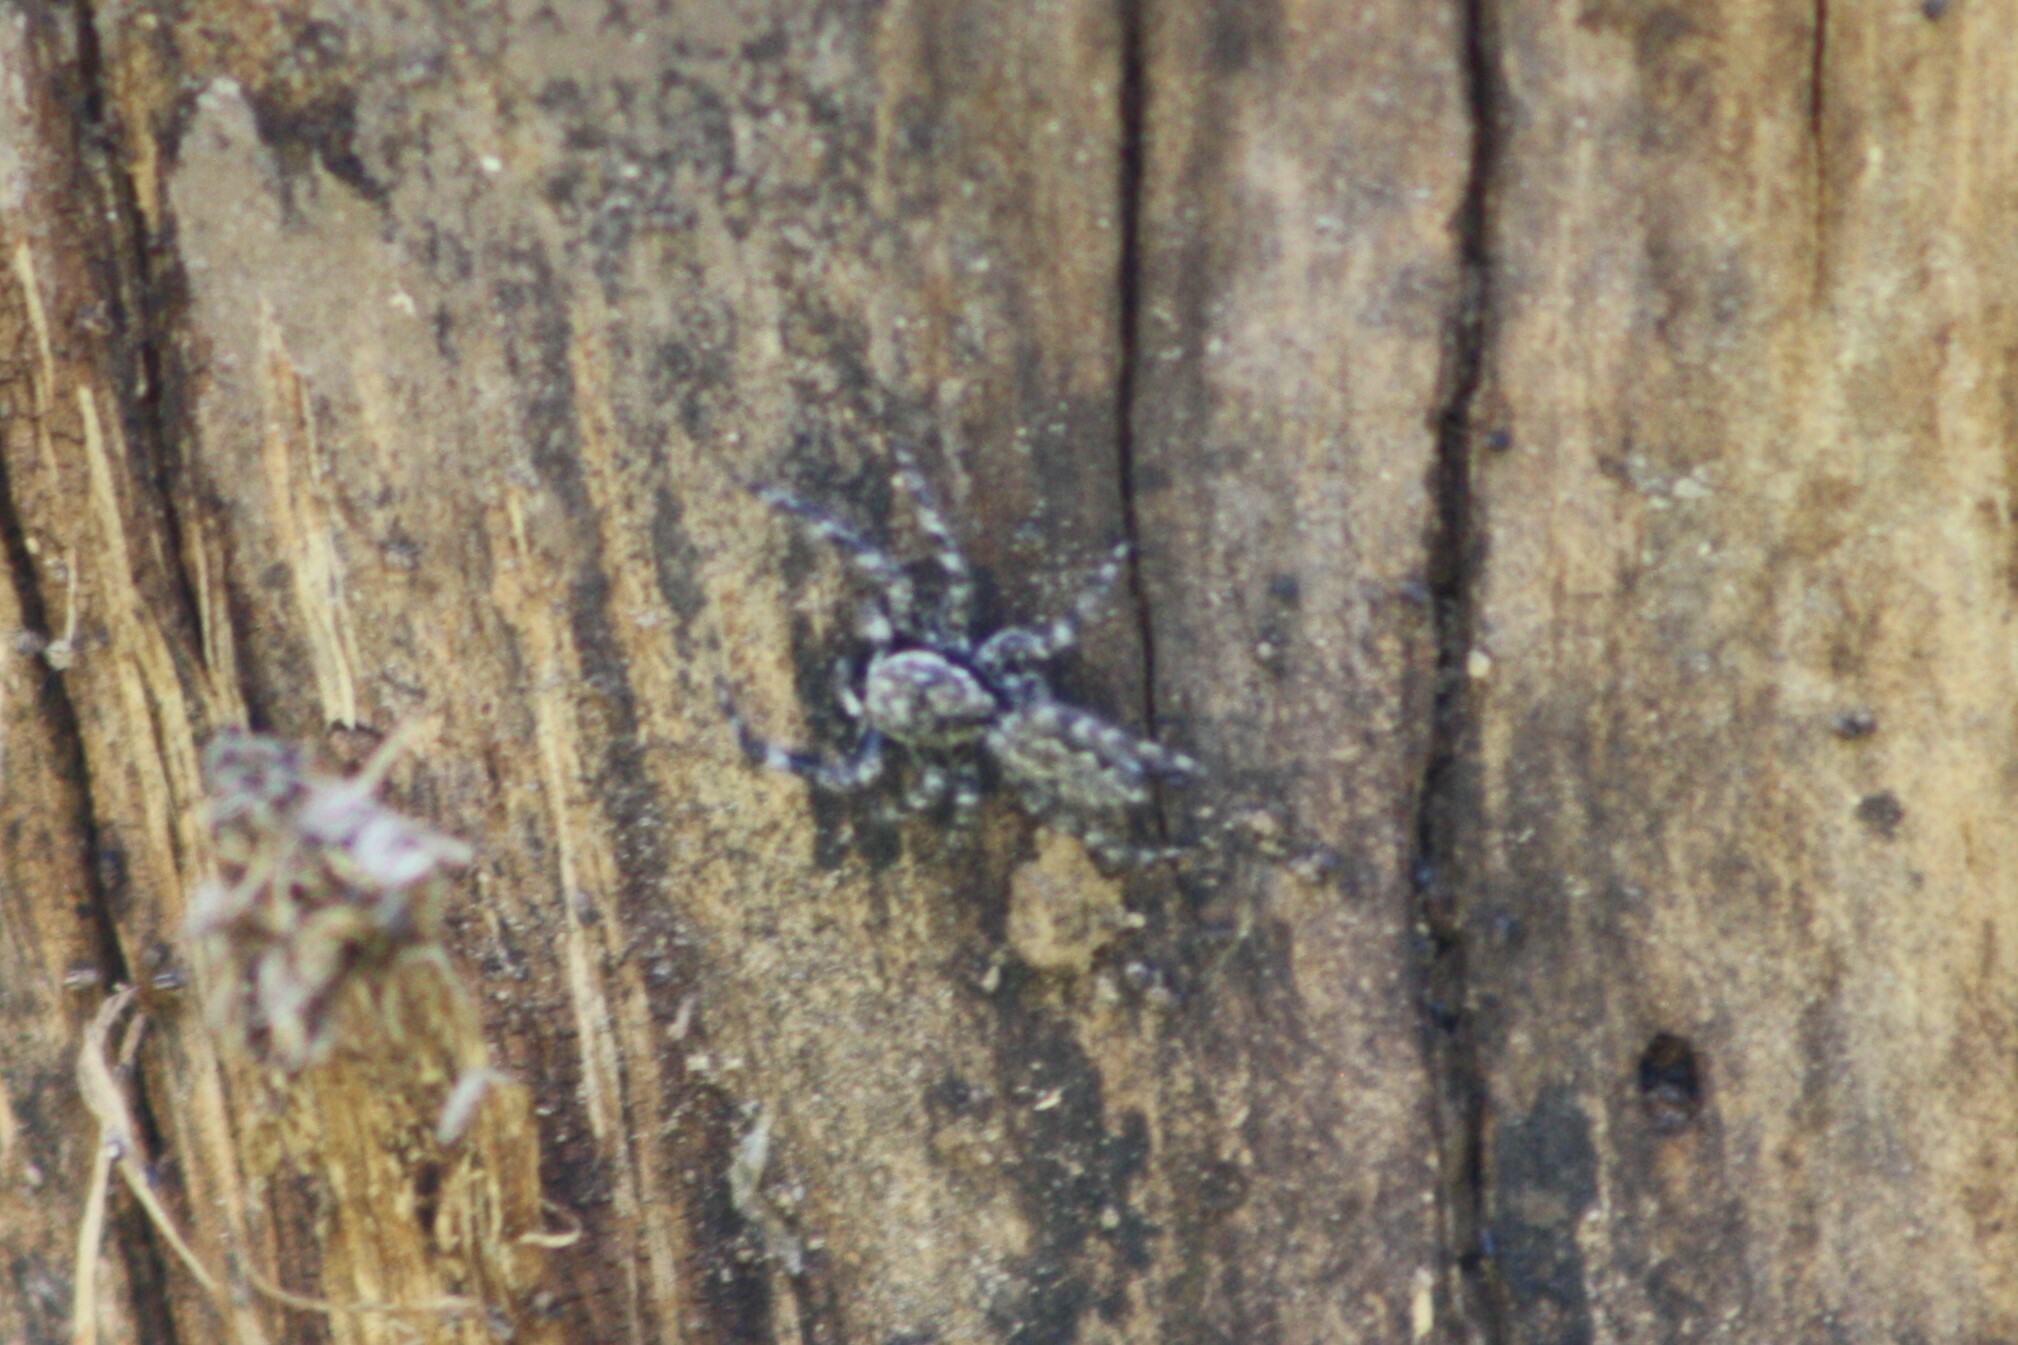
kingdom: Animalia
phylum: Arthropoda
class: Arachnida
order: Araneae
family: Salticidae
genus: Platycryptus
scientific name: Platycryptus undatus
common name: Tan jumping spider
